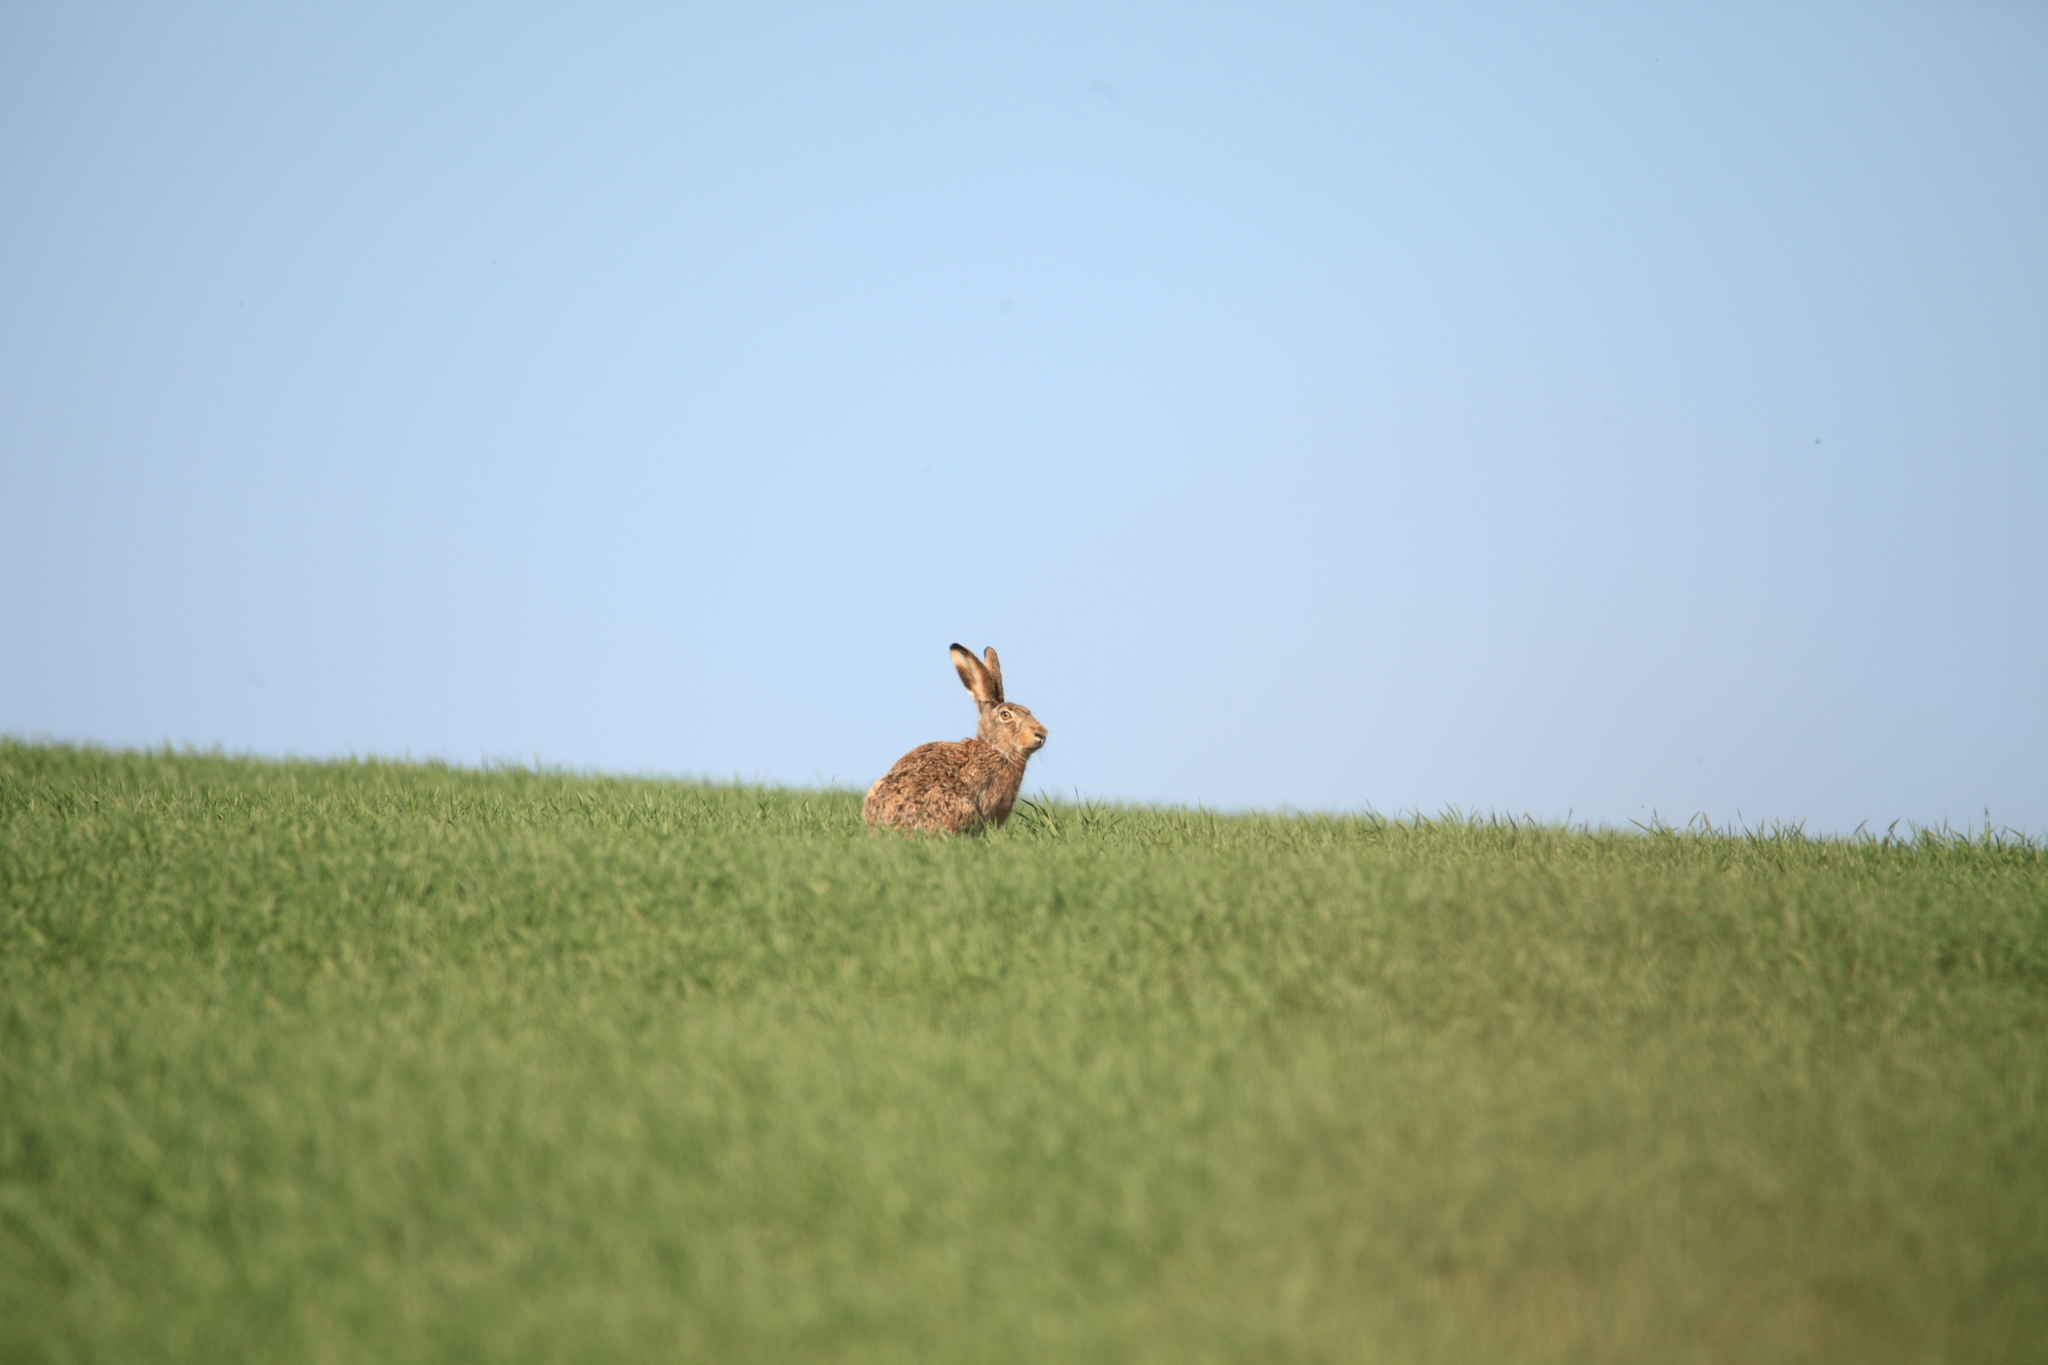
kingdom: Animalia
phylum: Chordata
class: Mammalia
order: Lagomorpha
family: Leporidae
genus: Lepus
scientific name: Lepus europaeus
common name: European hare
